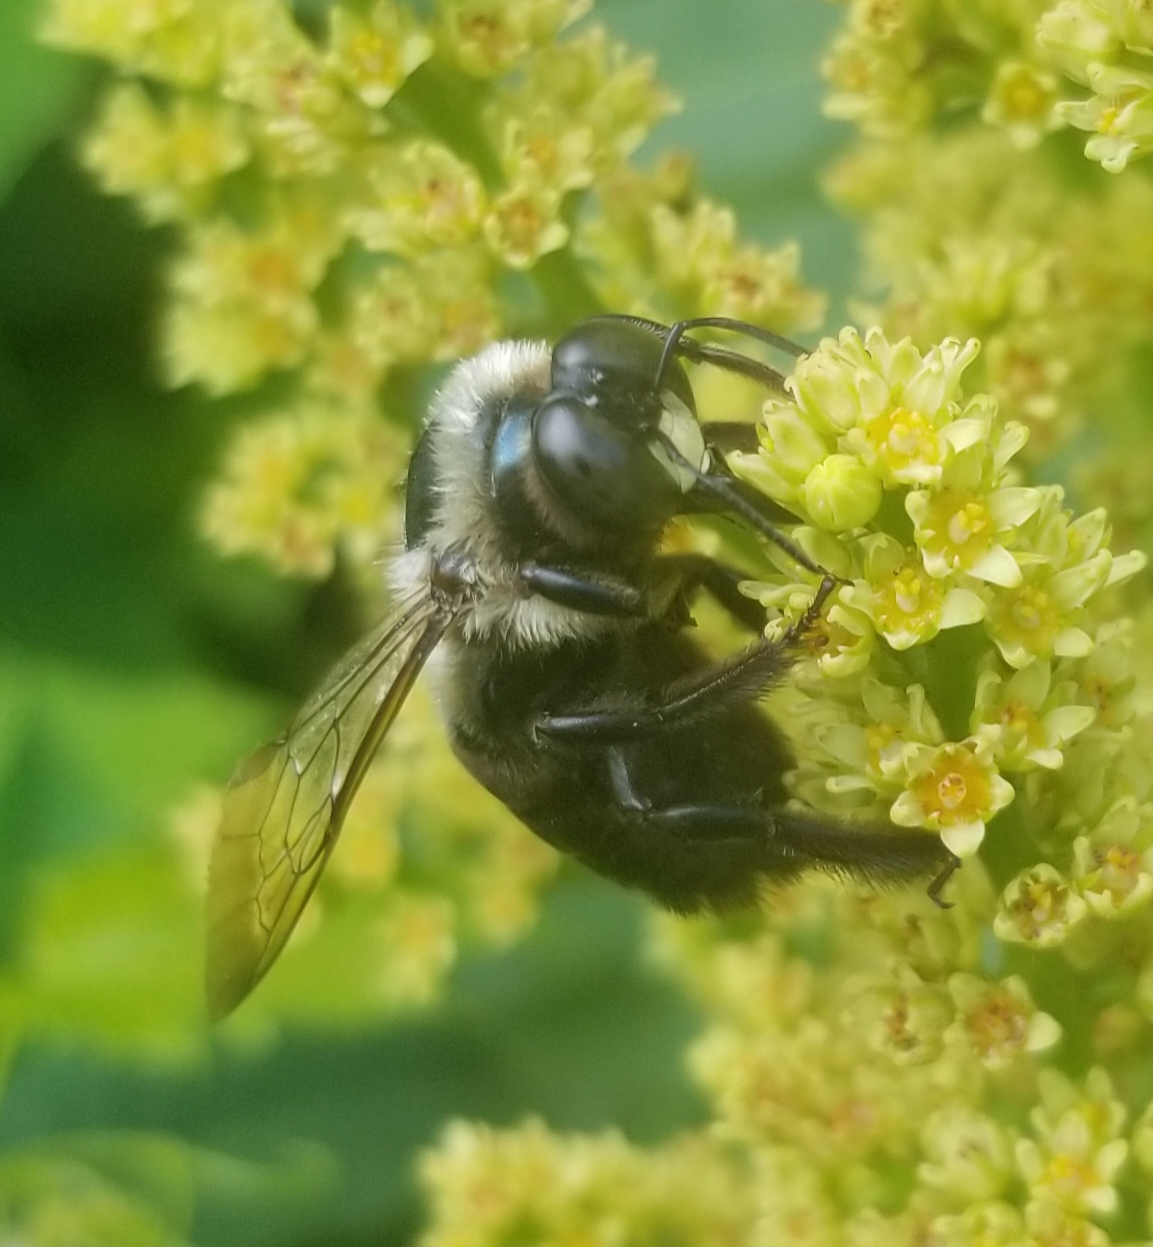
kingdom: Animalia
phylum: Arthropoda
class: Insecta
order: Hymenoptera
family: Apidae
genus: Xylocopa
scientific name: Xylocopa virginica
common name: Carpenter bee
